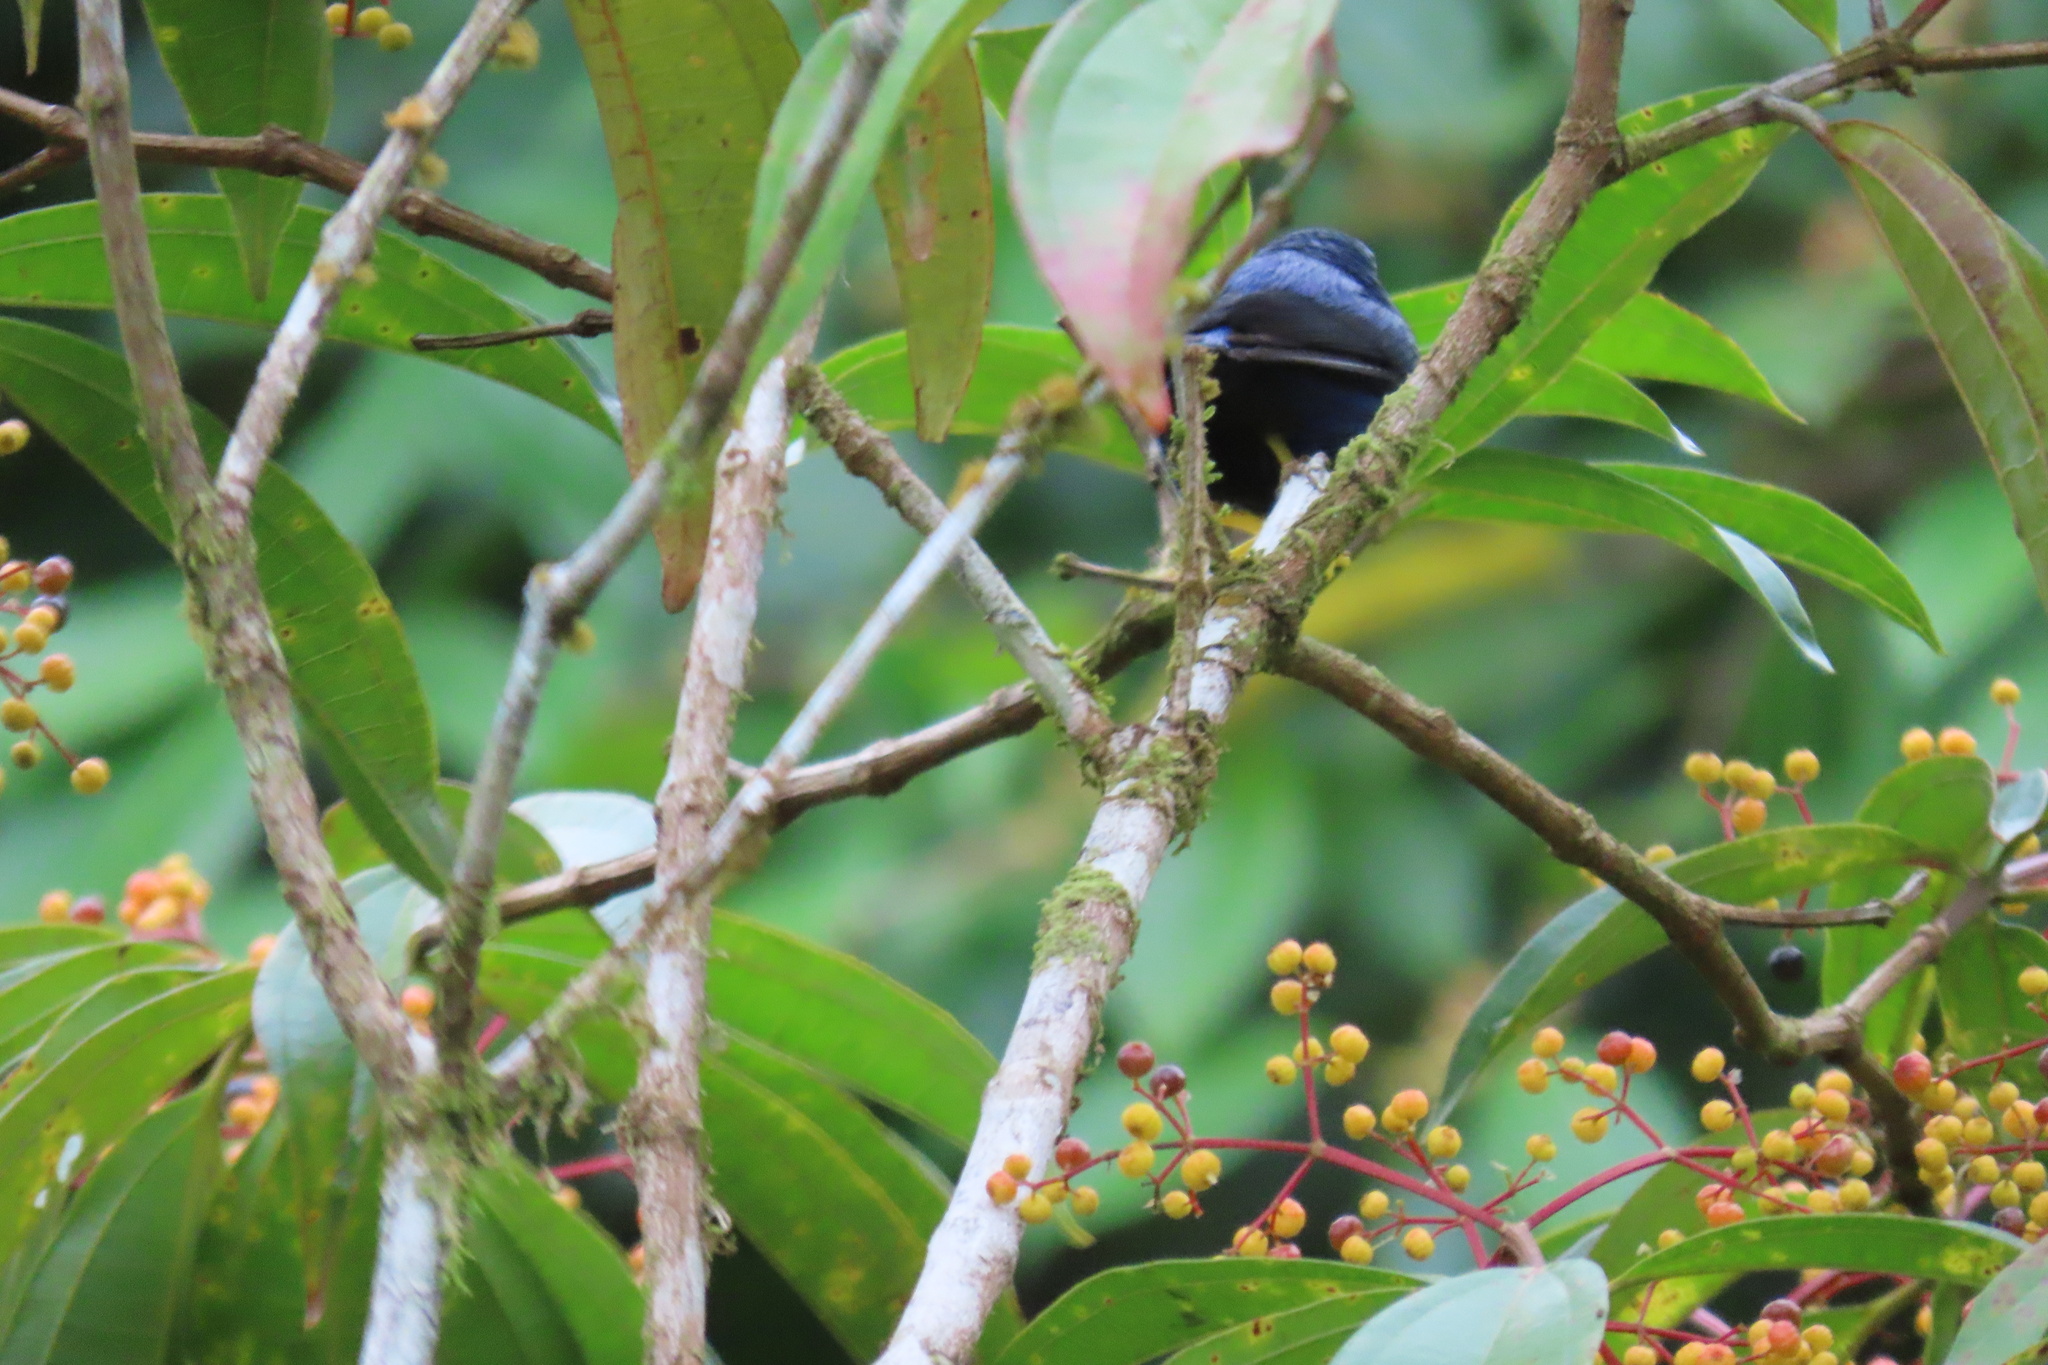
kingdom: Animalia
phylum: Chordata
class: Aves
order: Passeriformes
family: Thraupidae
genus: Cyanerpes
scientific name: Cyanerpes lucidus
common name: Shining honeycreeper
